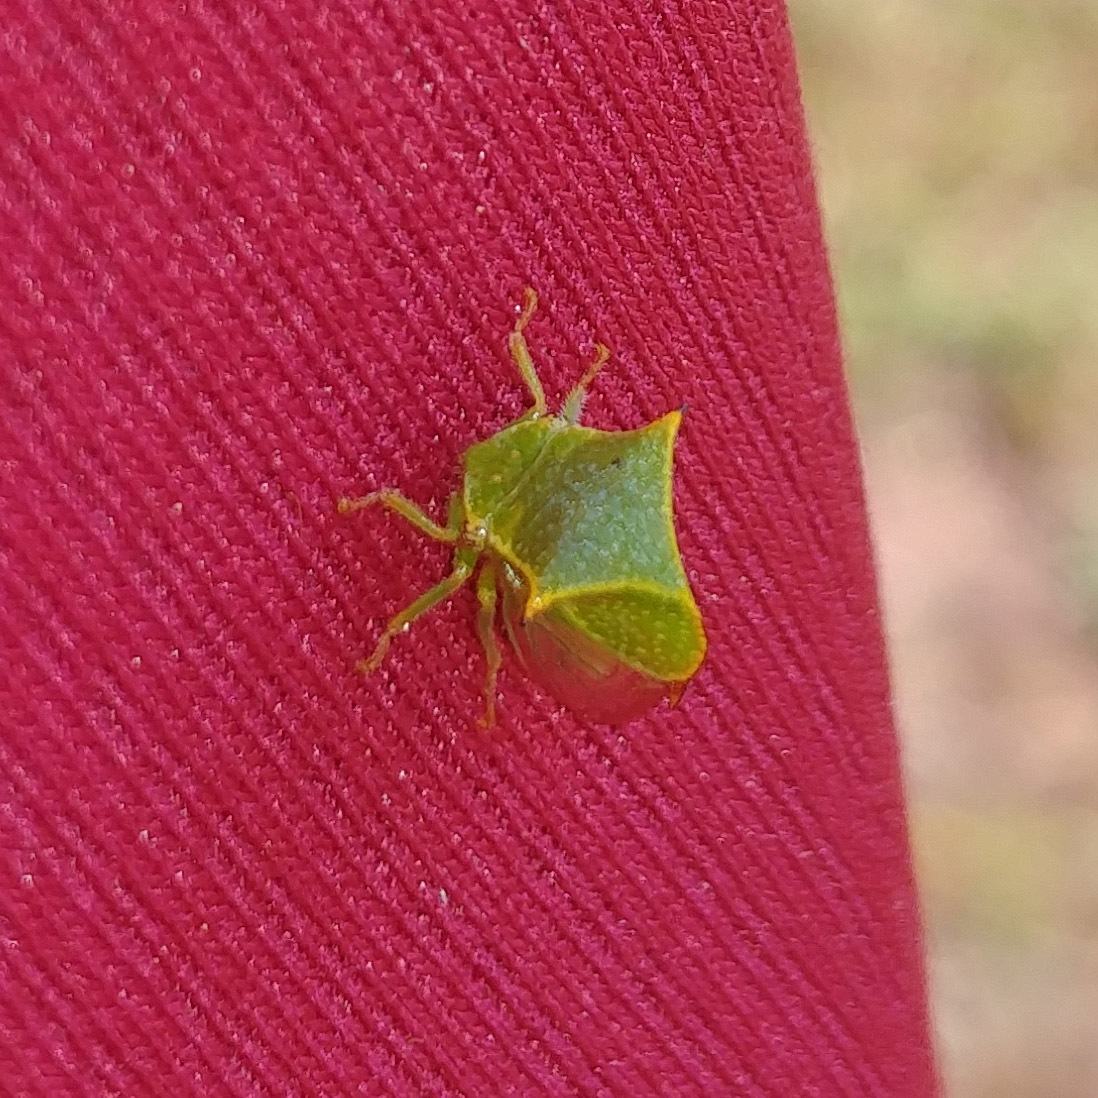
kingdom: Animalia
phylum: Arthropoda
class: Insecta
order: Hemiptera
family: Membracidae
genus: Stictocephala
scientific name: Stictocephala bisonia
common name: American buffalo treehopper
